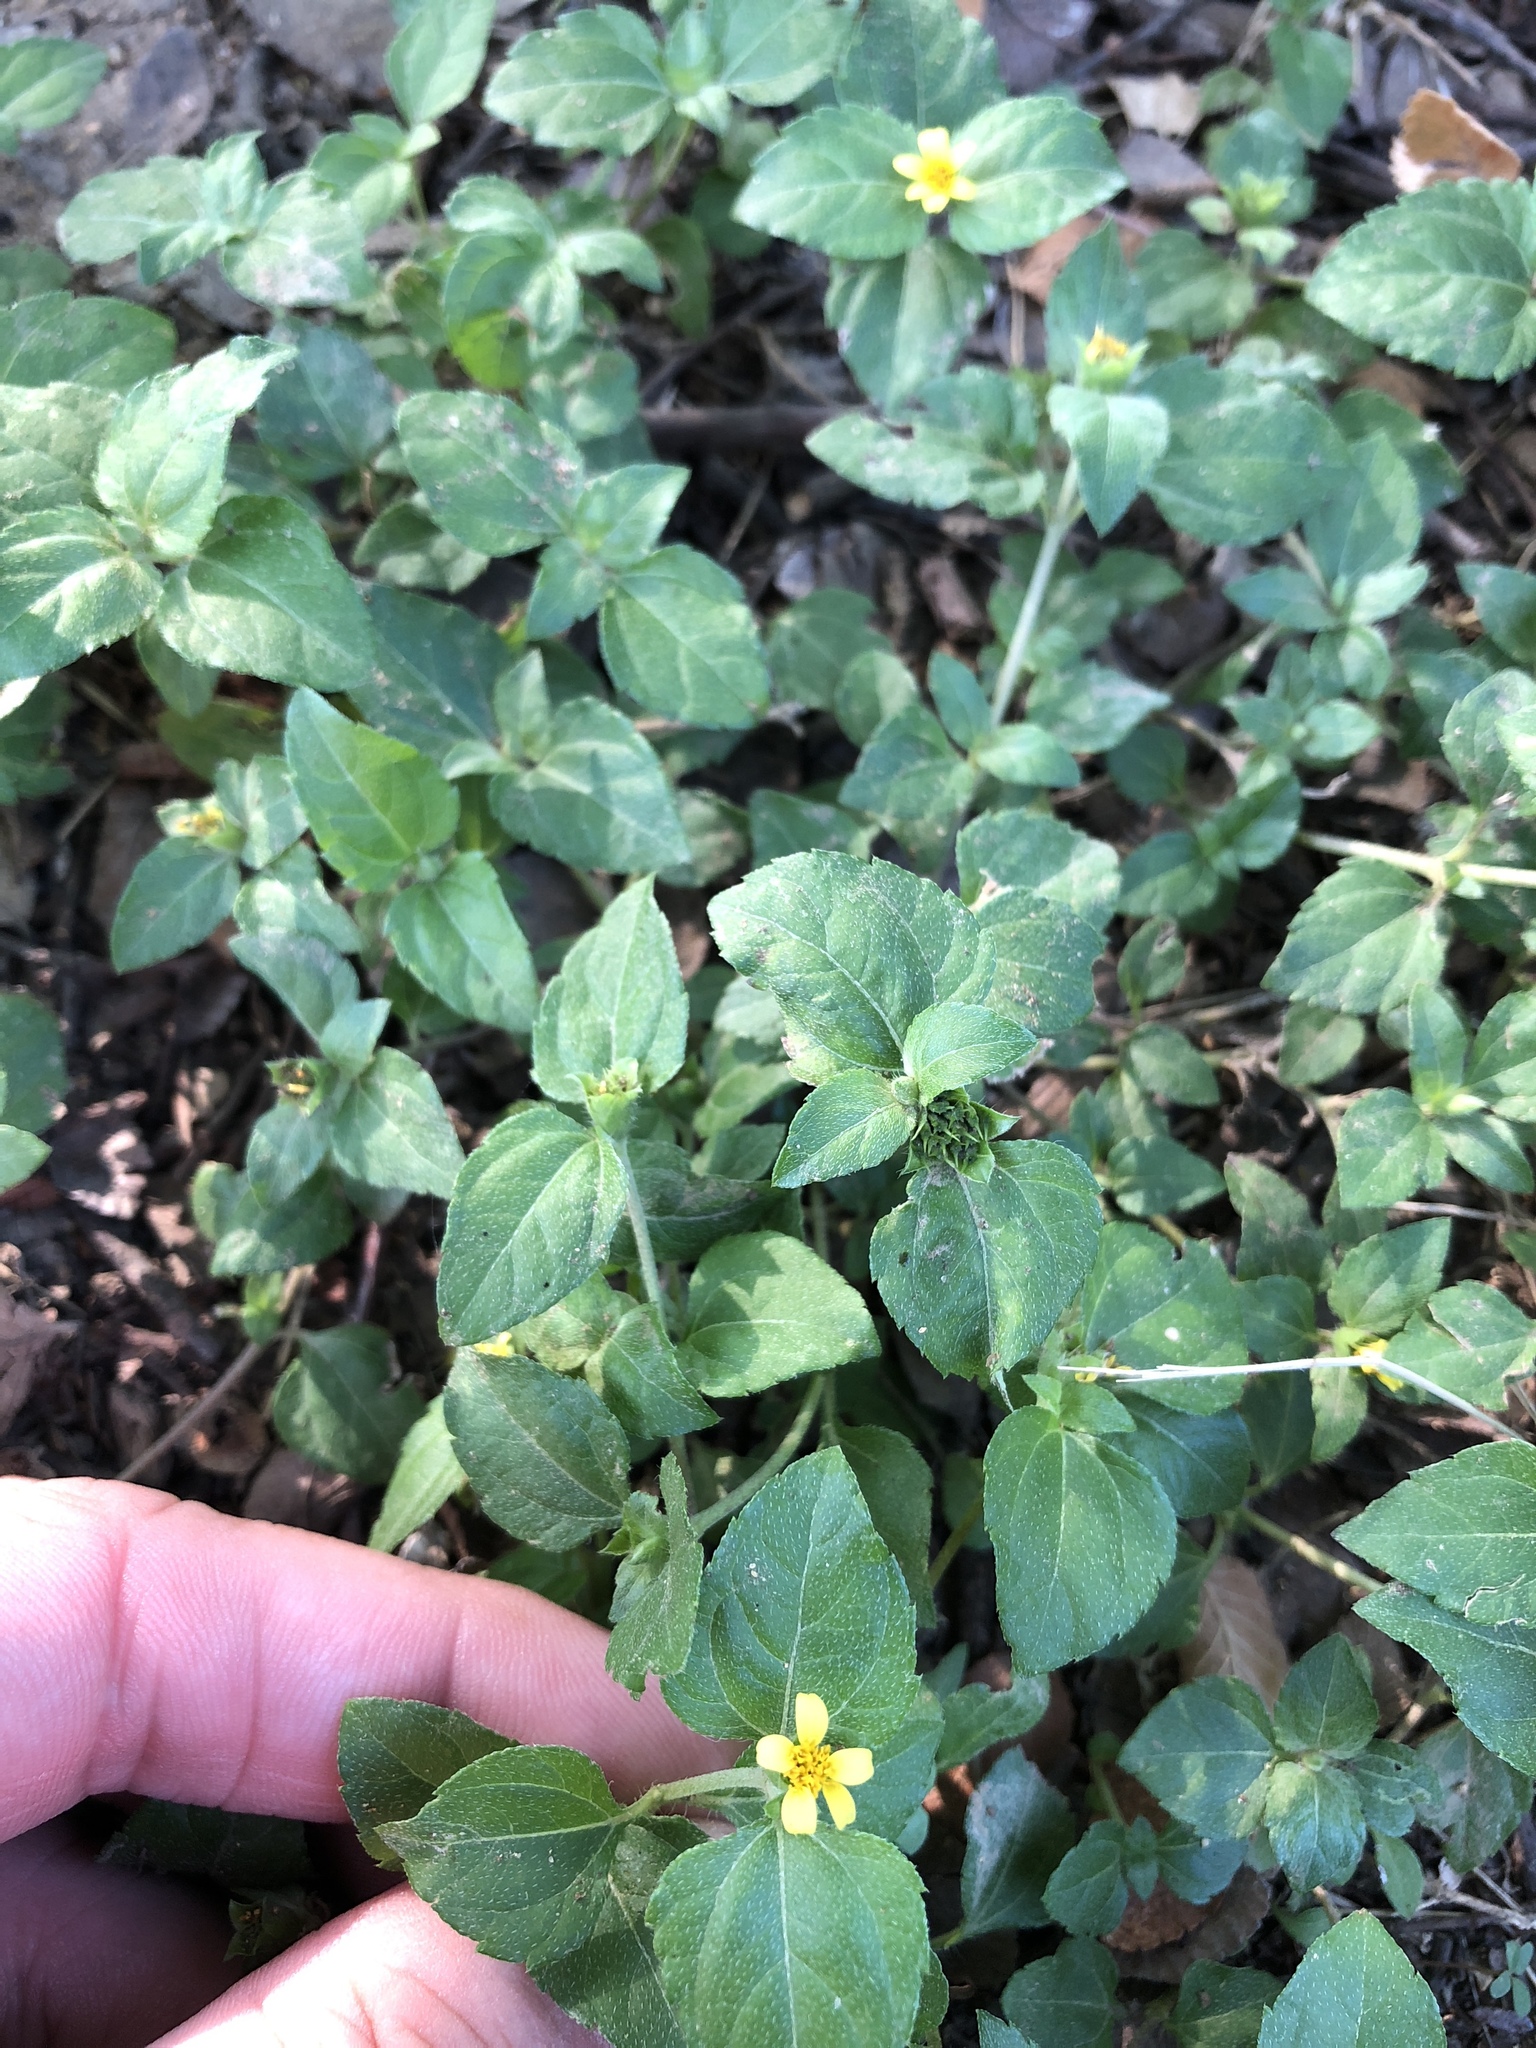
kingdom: Plantae
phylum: Tracheophyta
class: Magnoliopsida
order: Asterales
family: Asteraceae
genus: Calyptocarpus
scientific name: Calyptocarpus vialis
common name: Straggler daisy
